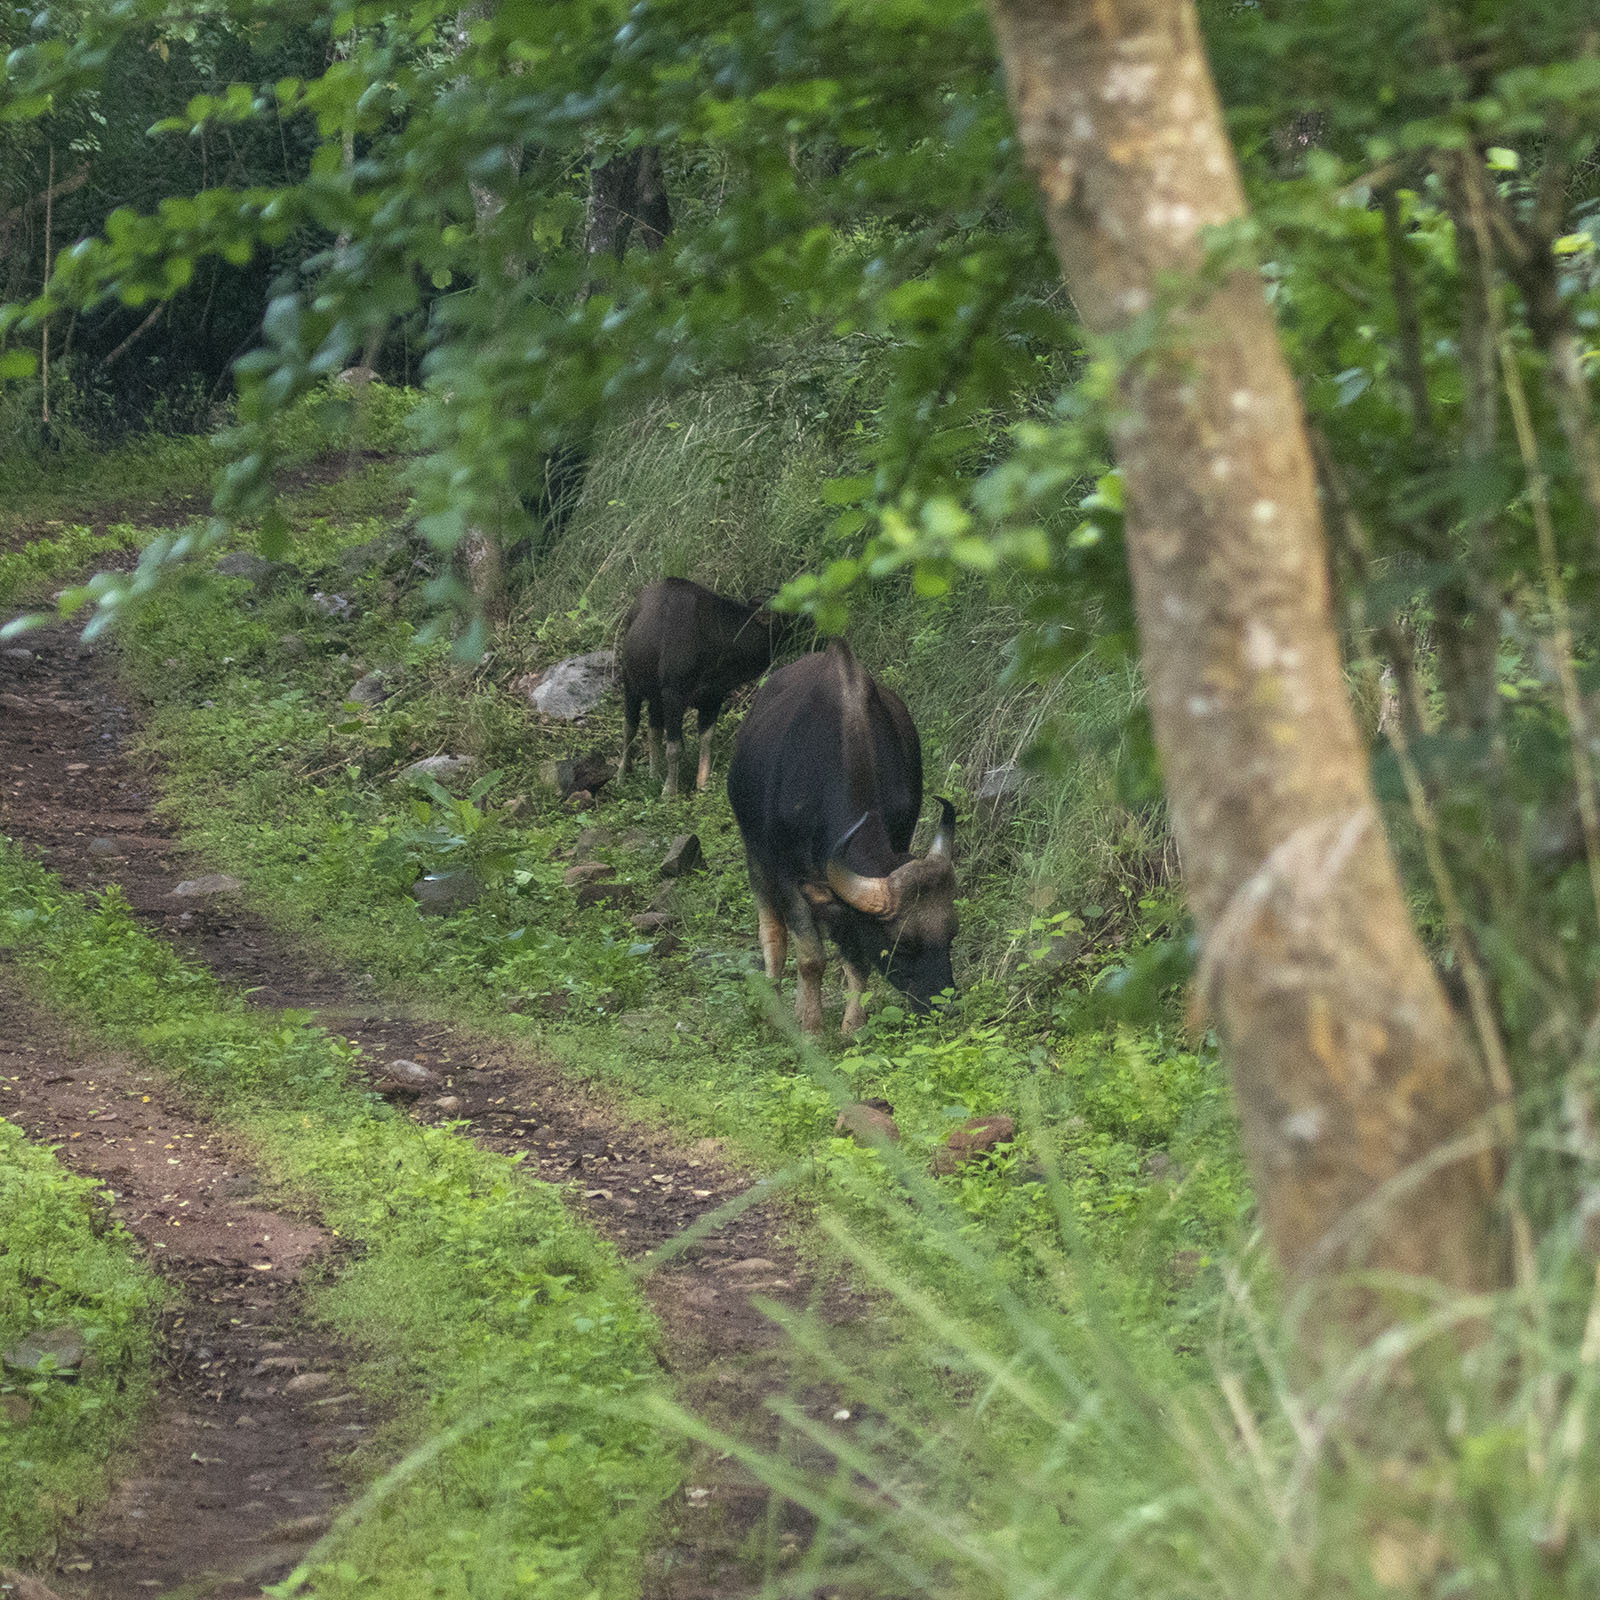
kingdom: Animalia
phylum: Chordata
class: Mammalia
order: Artiodactyla
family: Bovidae
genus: Bos
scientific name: Bos frontalis
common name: Gaur
